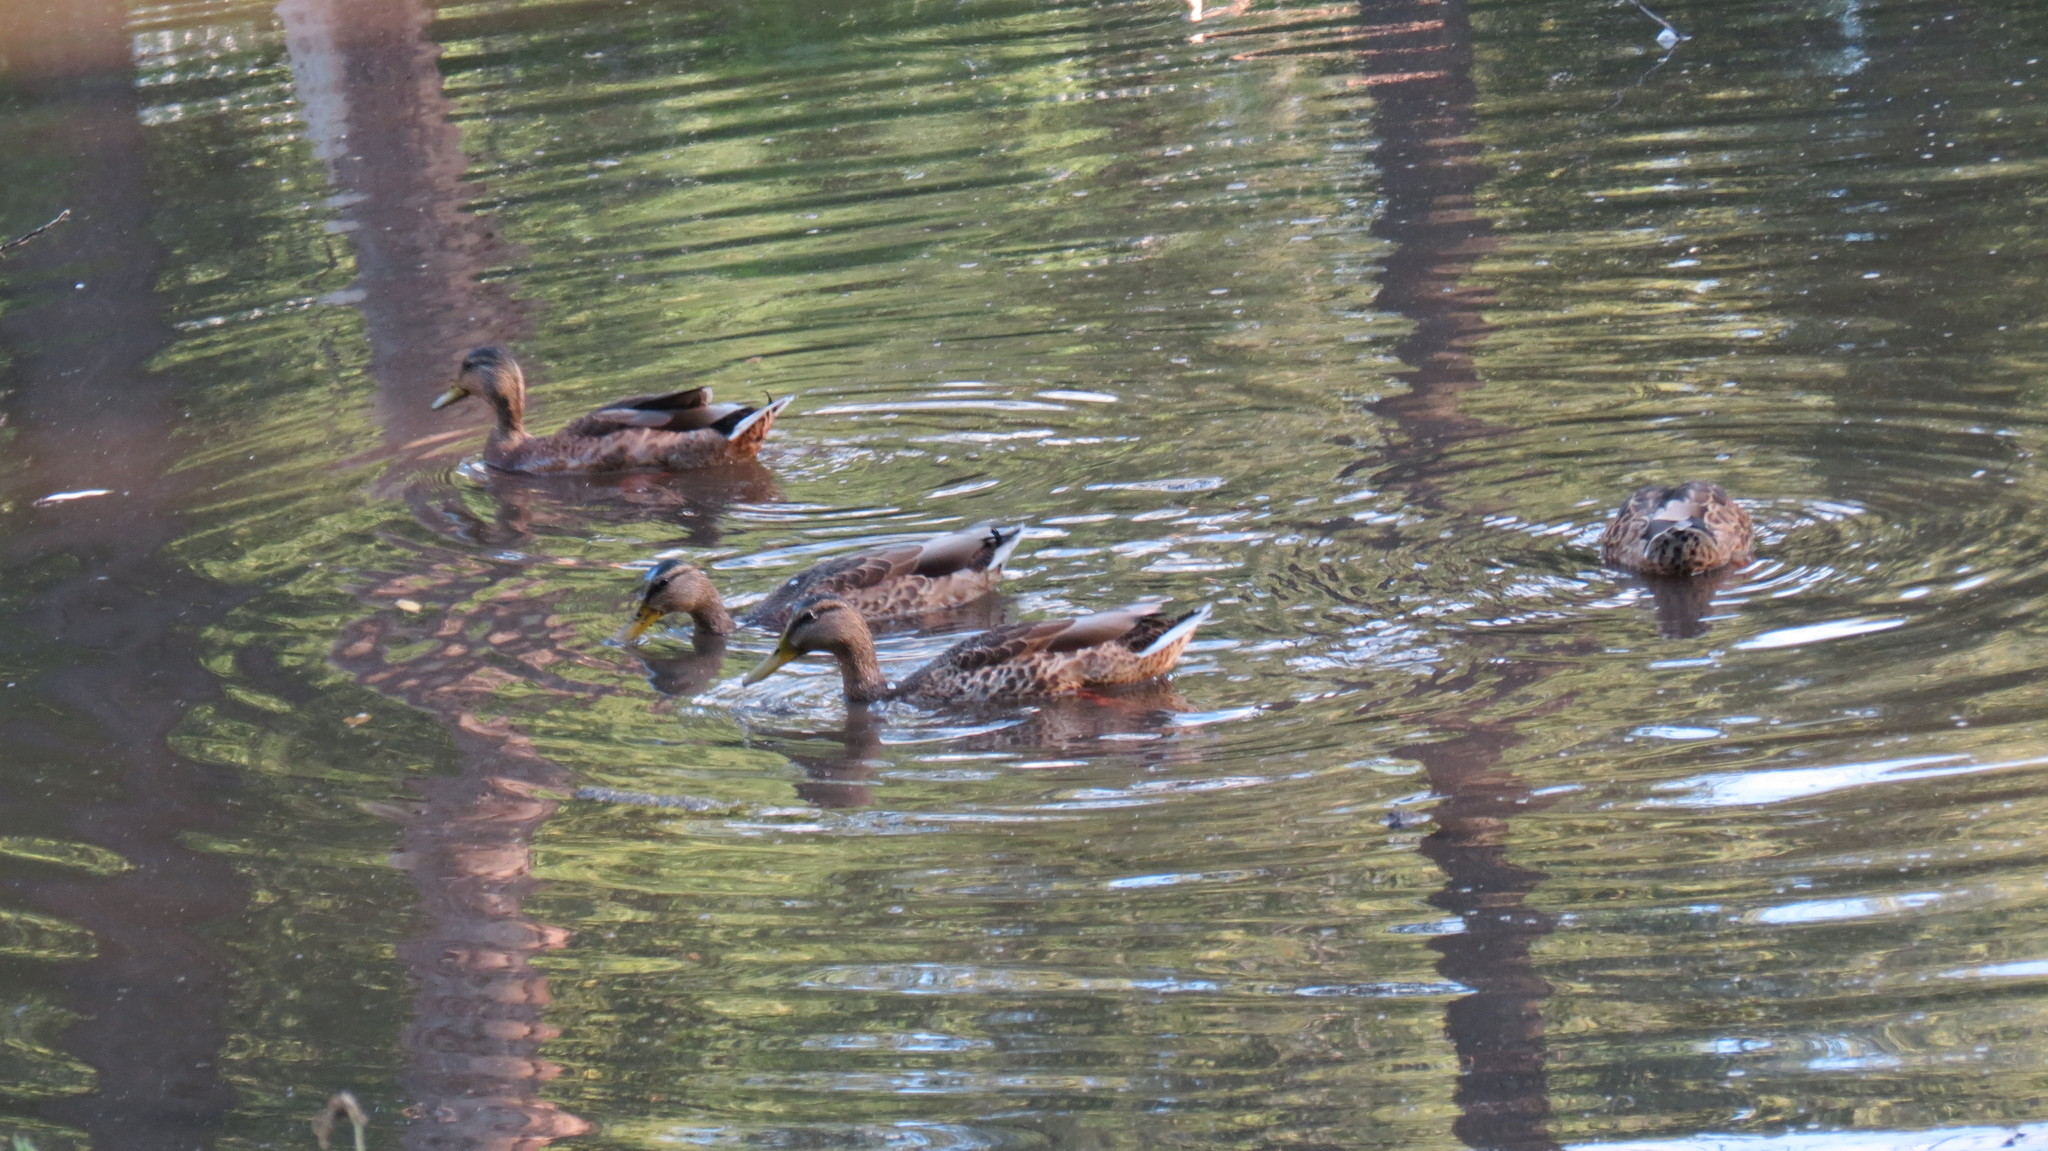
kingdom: Animalia
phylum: Chordata
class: Aves
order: Anseriformes
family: Anatidae
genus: Anas
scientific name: Anas platyrhynchos
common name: Mallard
